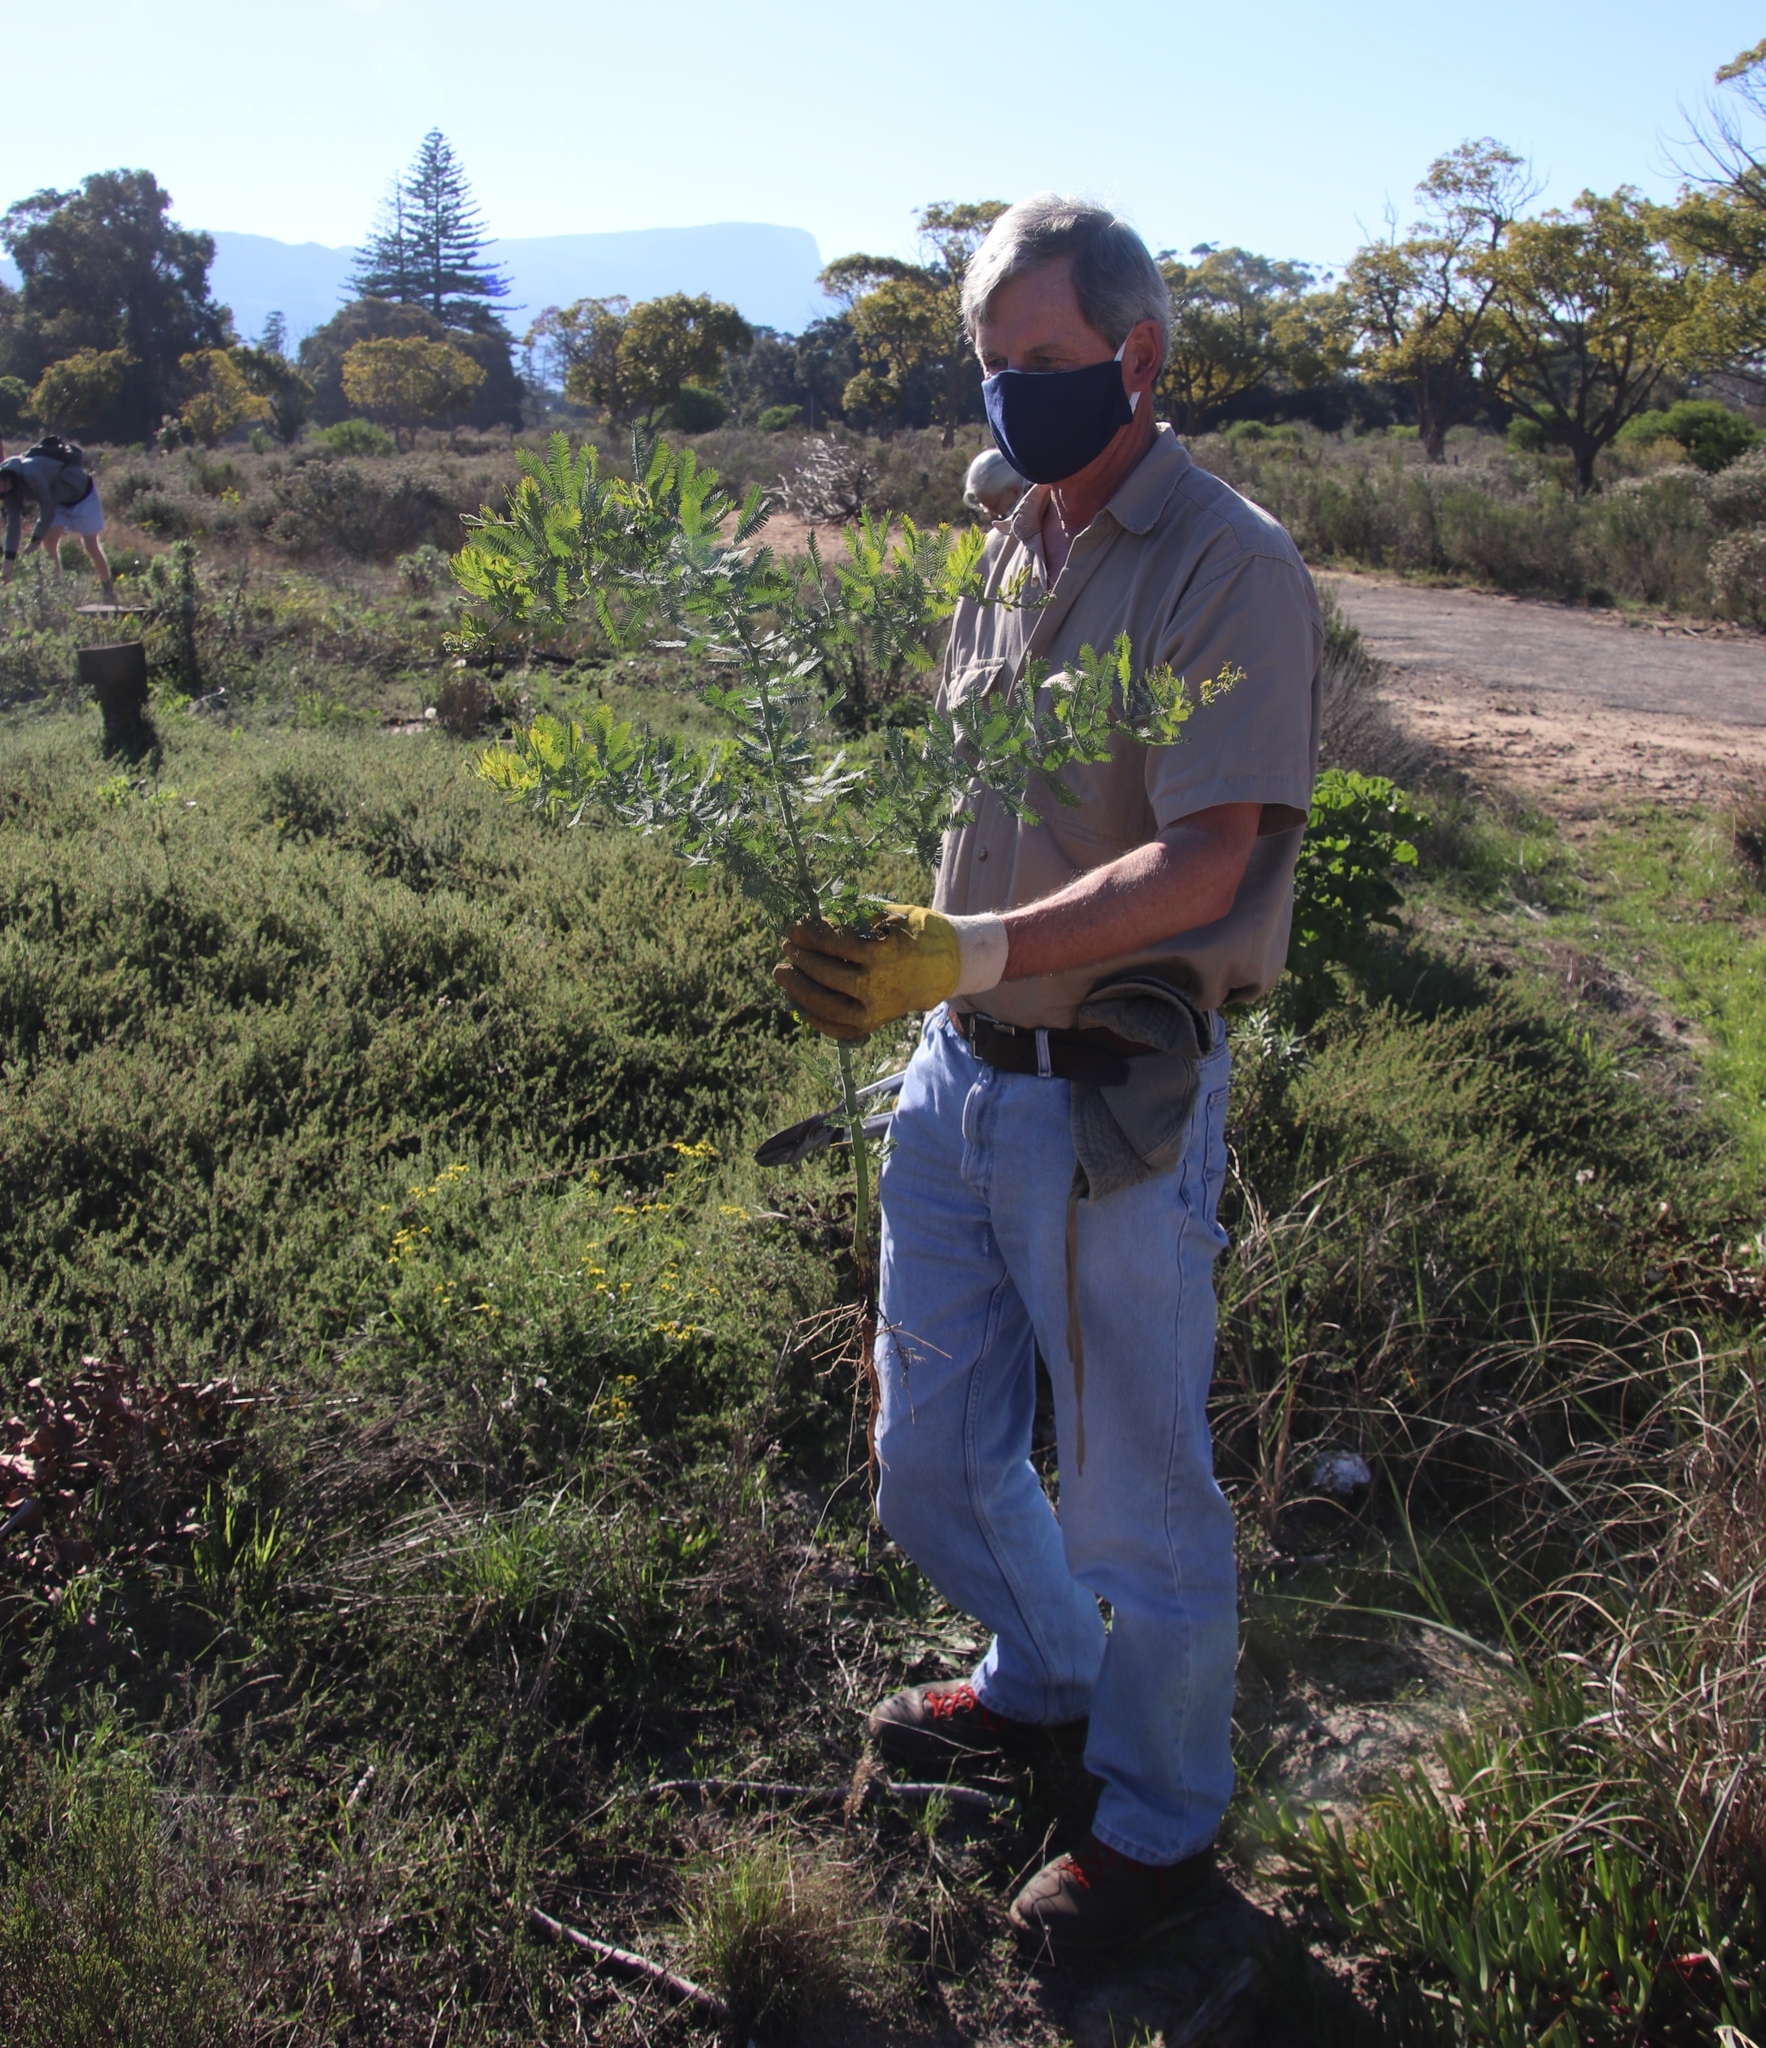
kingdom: Plantae
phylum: Tracheophyta
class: Magnoliopsida
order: Fabales
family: Fabaceae
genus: Acacia
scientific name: Acacia baileyana
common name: Cootamundra wattle
